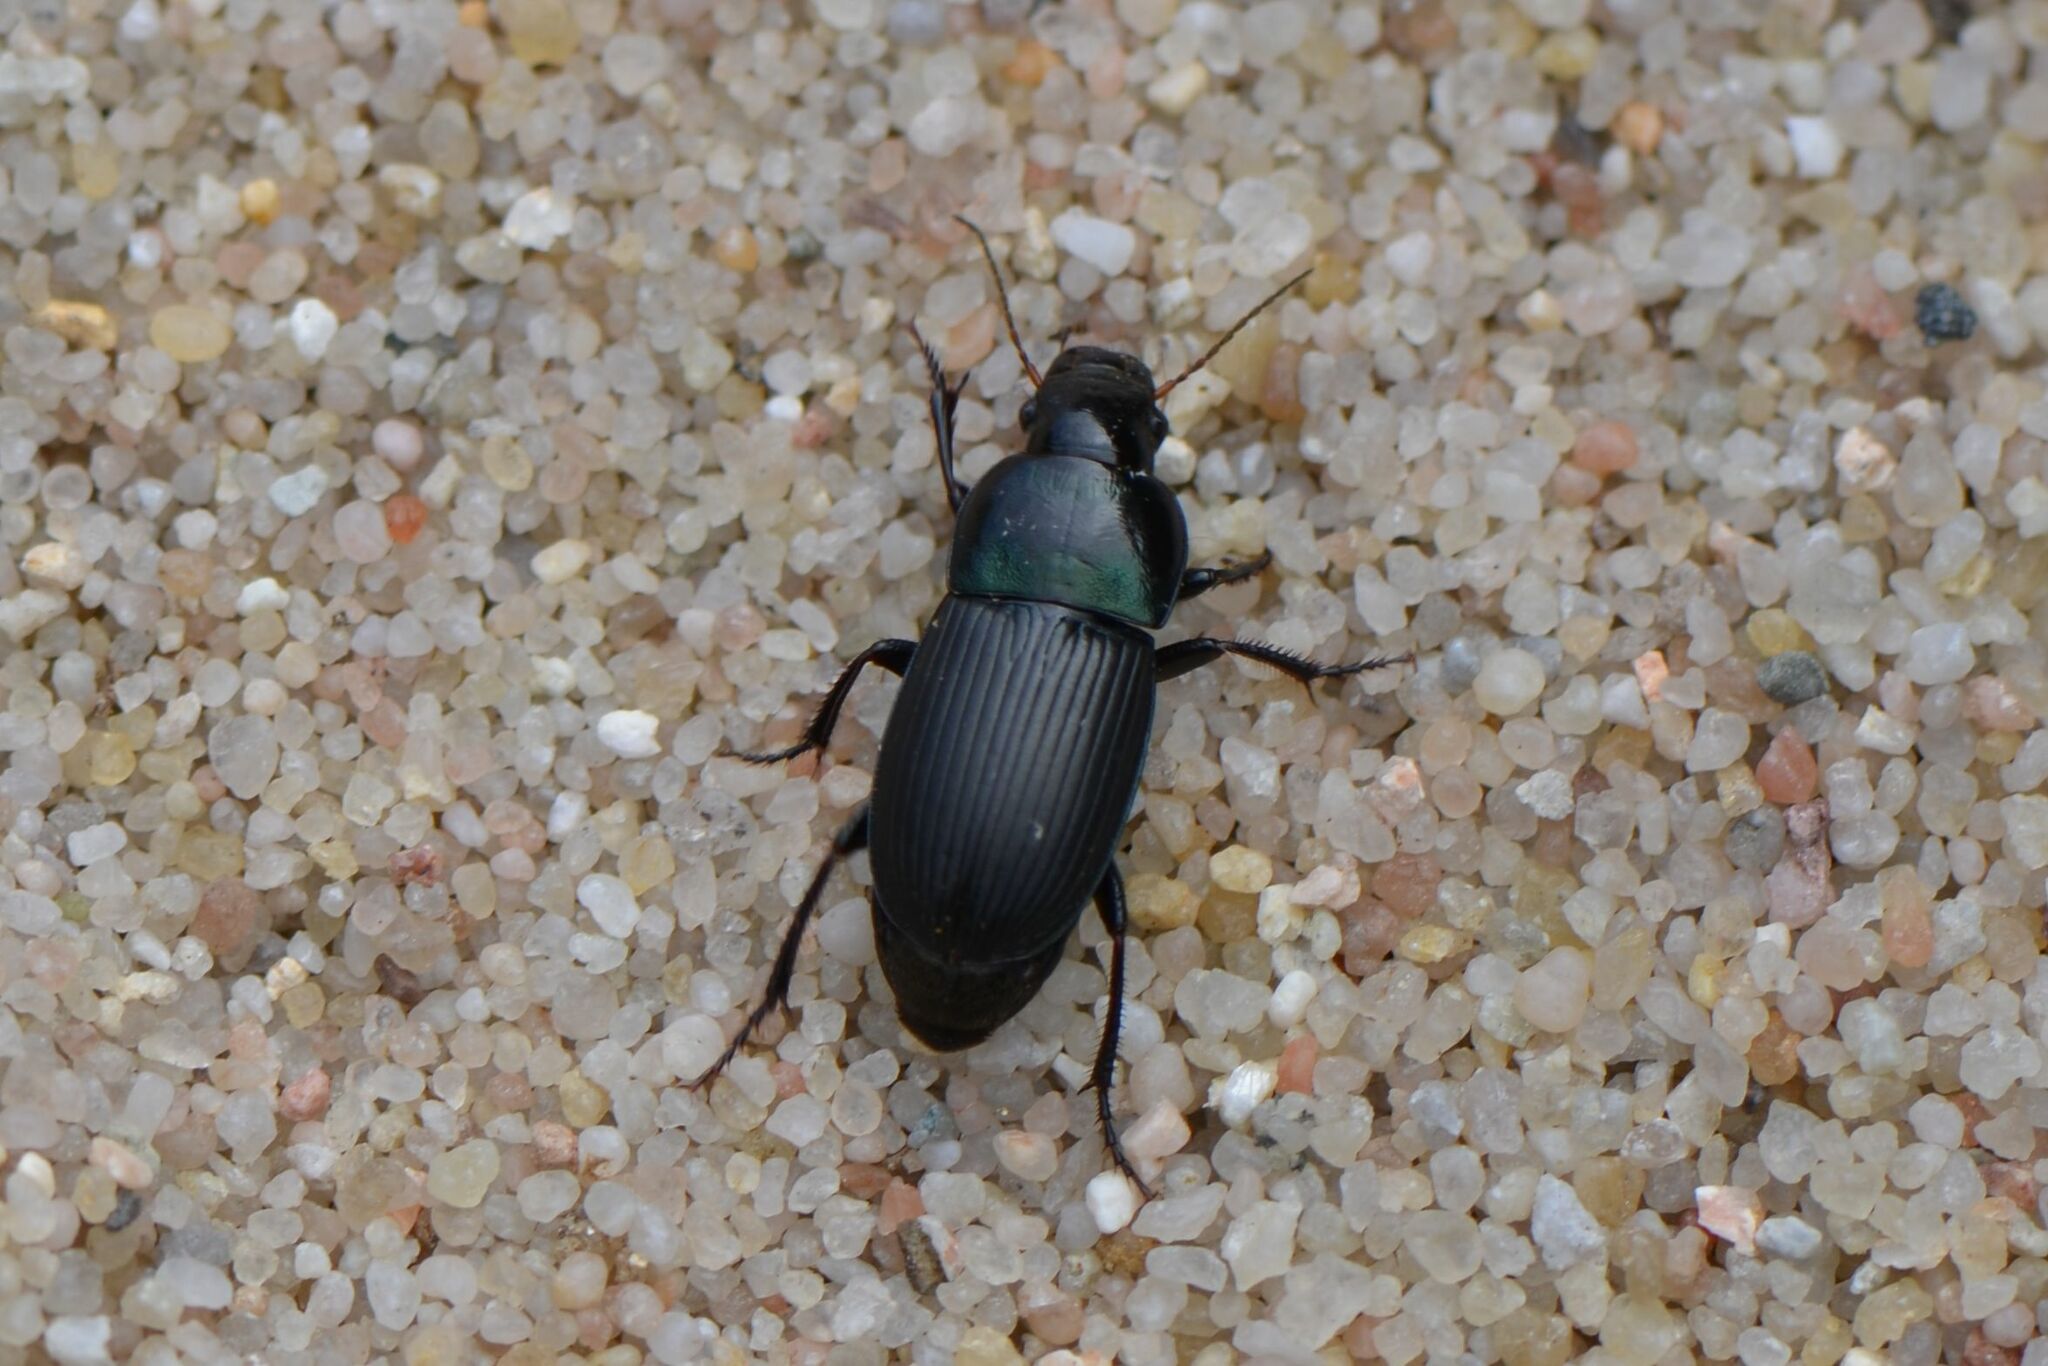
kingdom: Animalia
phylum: Arthropoda
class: Insecta
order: Coleoptera
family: Carabidae
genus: Harpalus
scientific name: Harpalus dimidiatus
